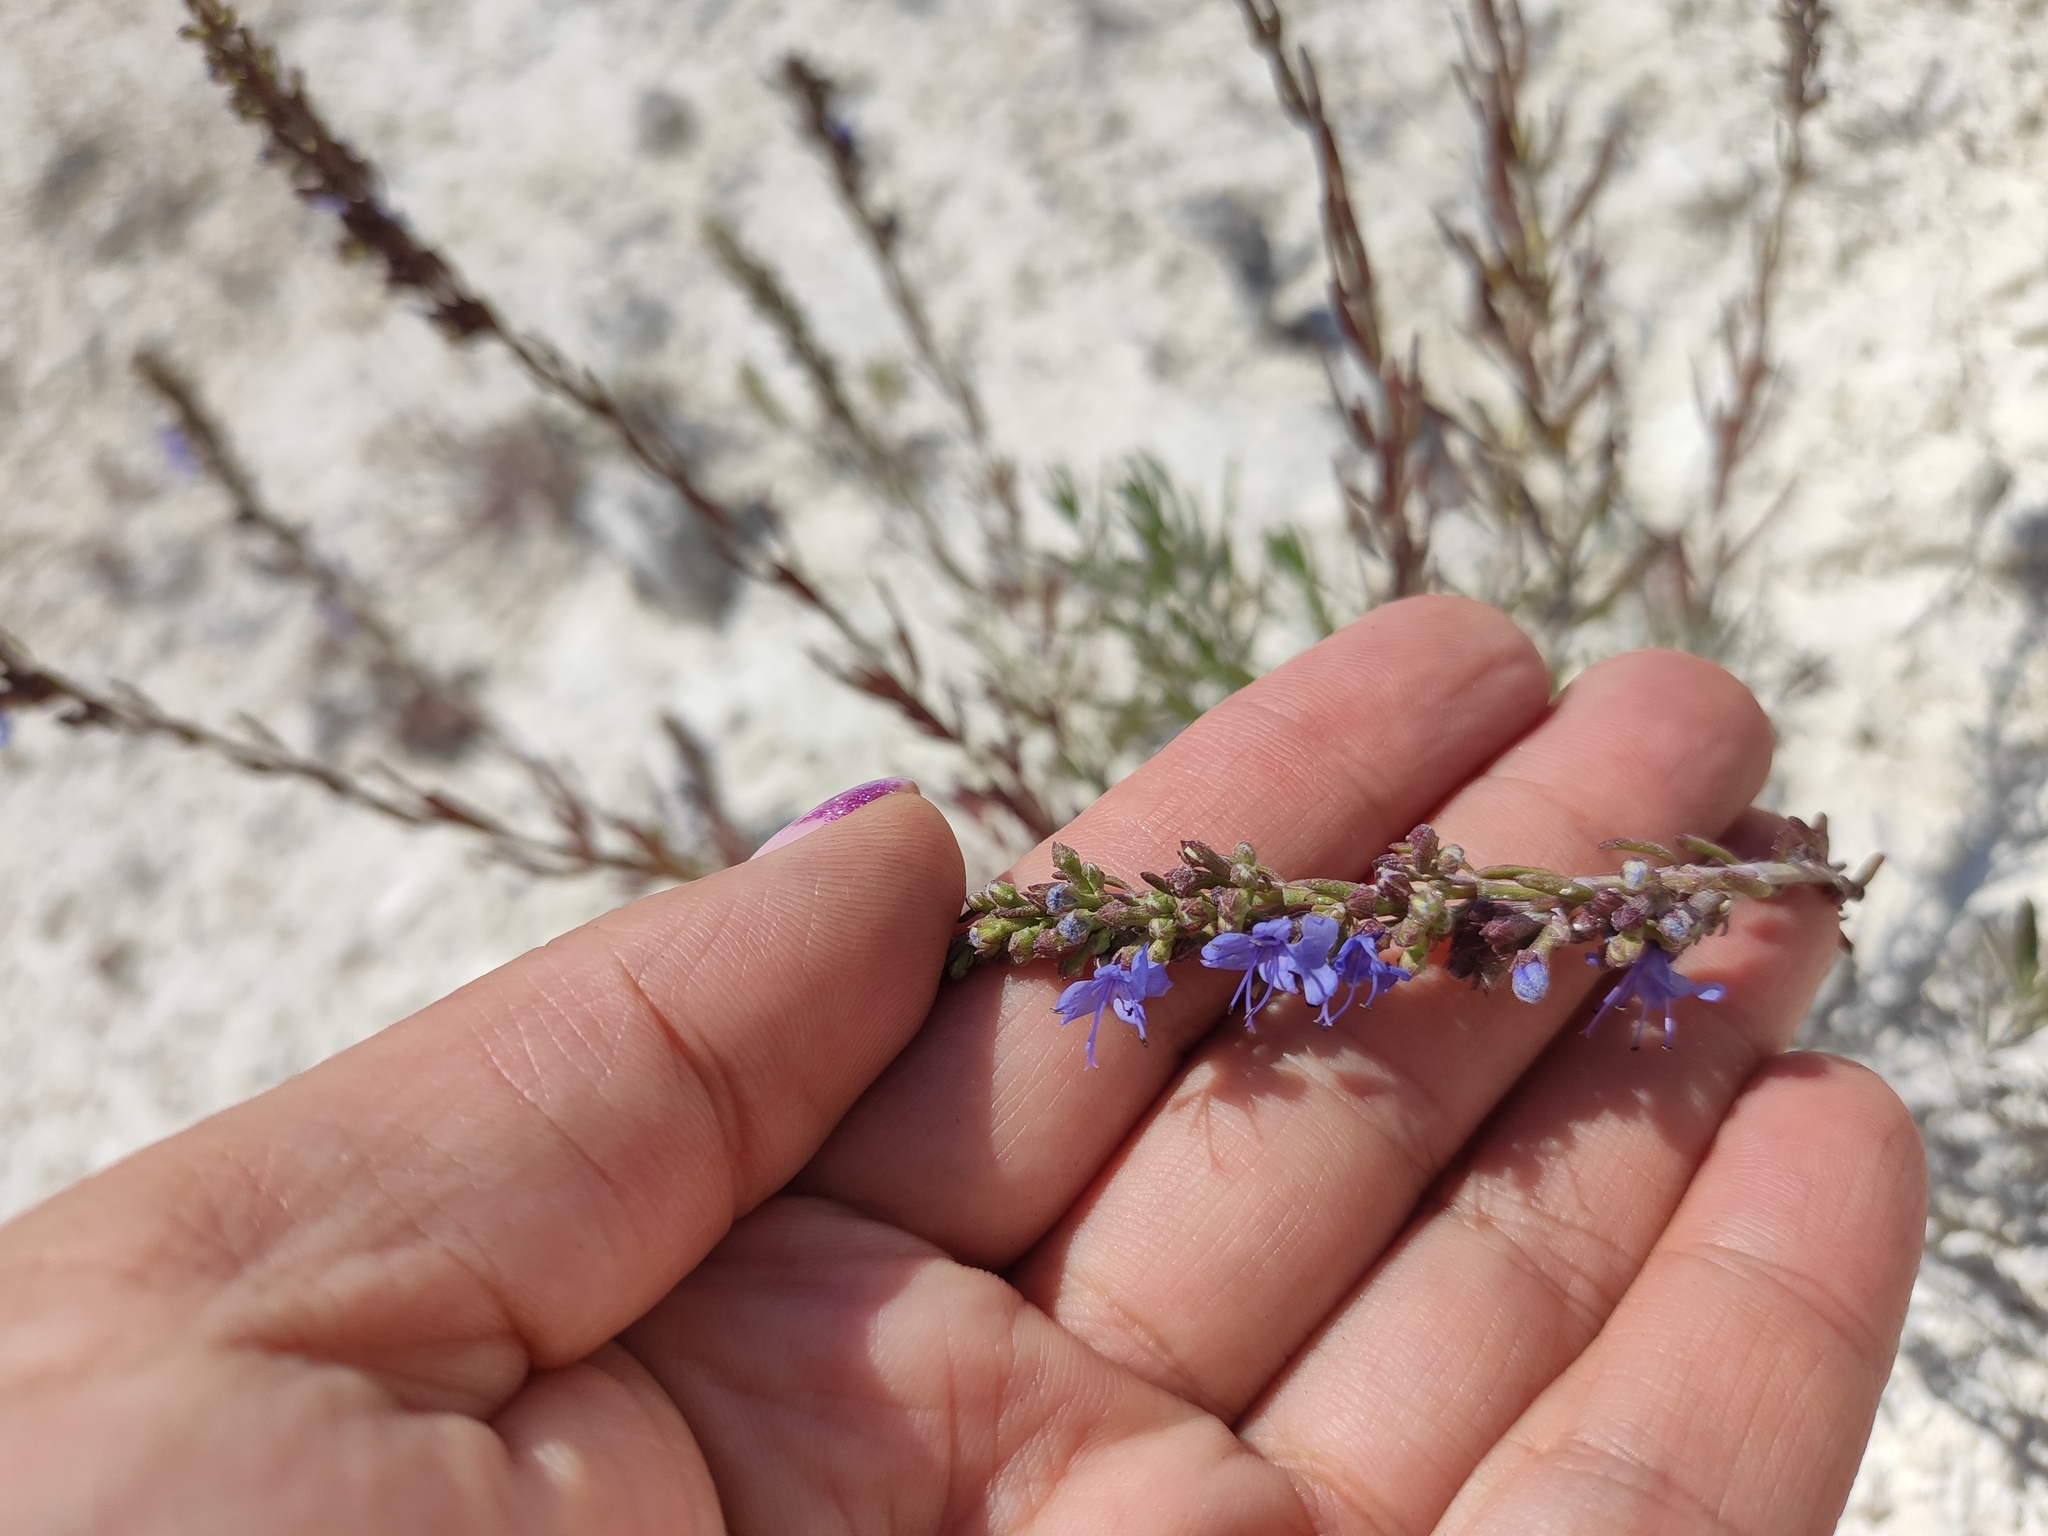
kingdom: Plantae
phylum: Tracheophyta
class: Magnoliopsida
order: Lamiales
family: Lamiaceae
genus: Hyssopus
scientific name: Hyssopus officinalis
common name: Hyssop
